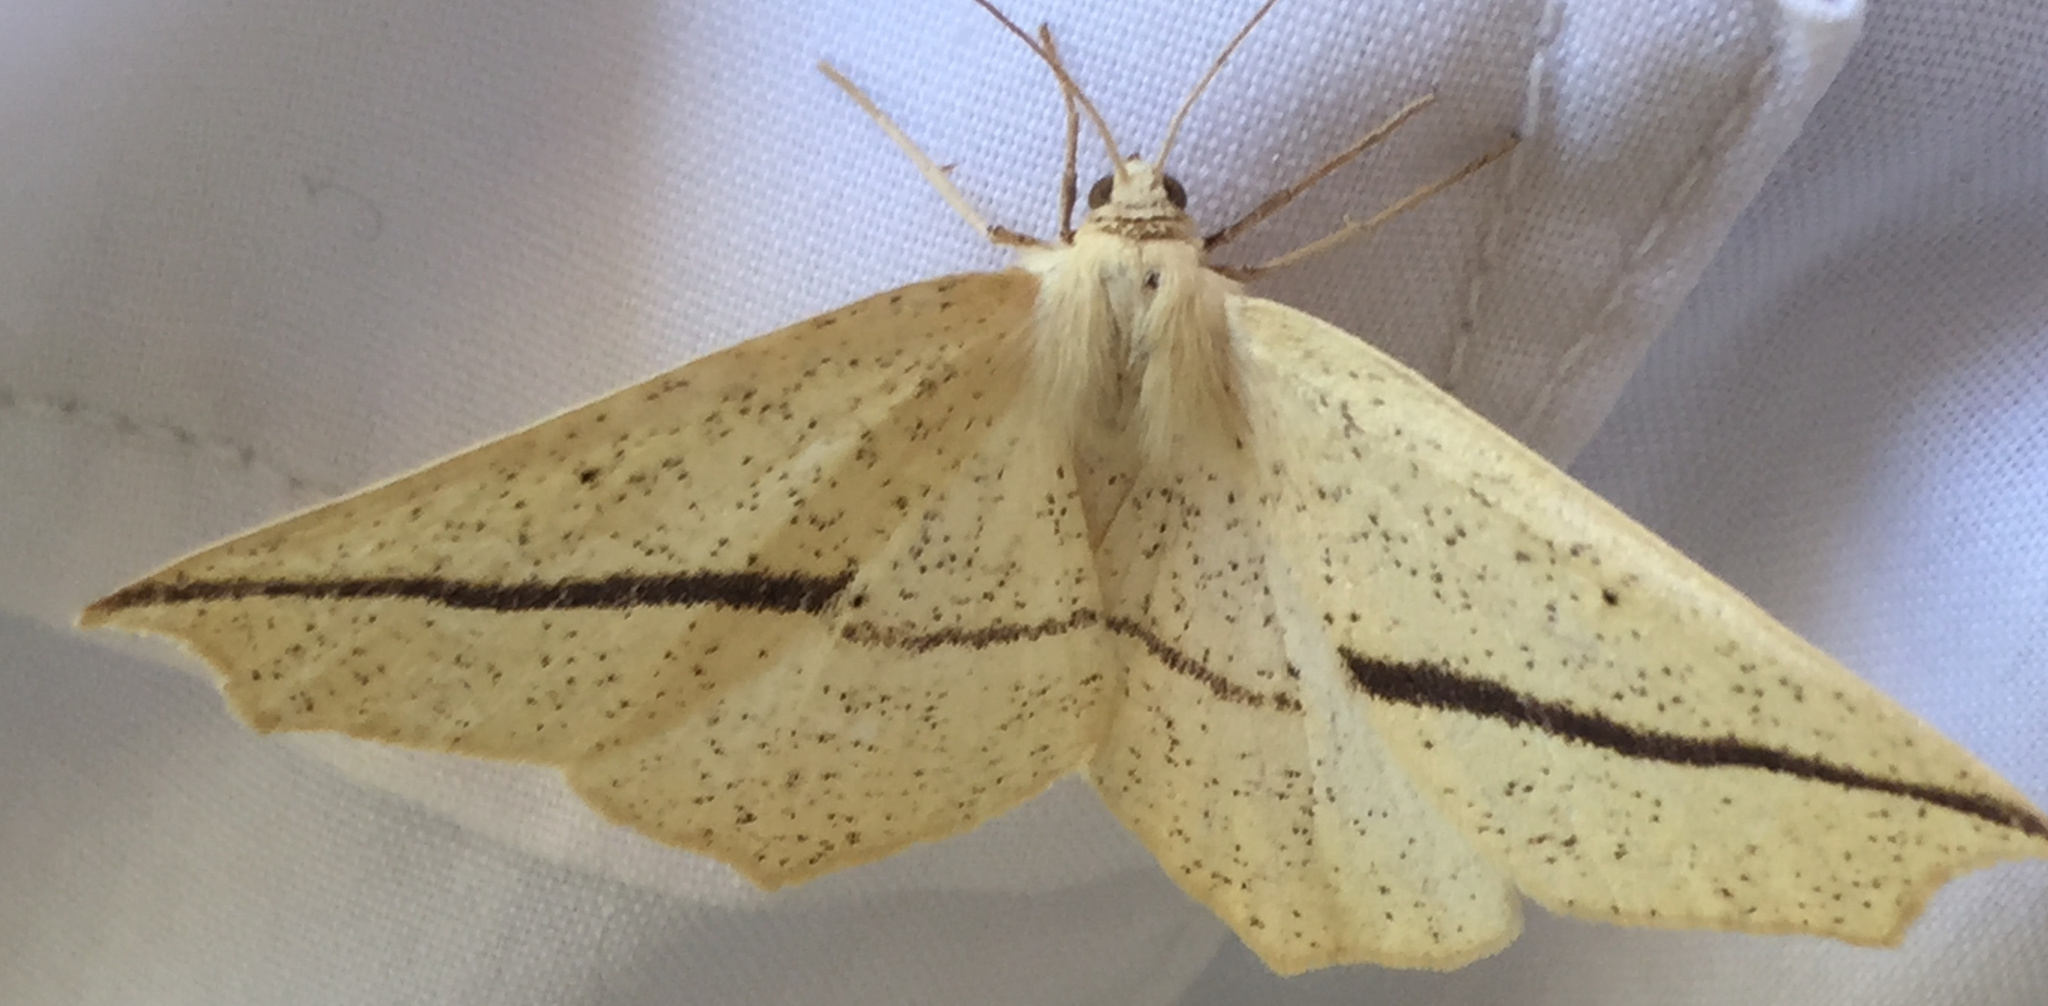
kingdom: Animalia
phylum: Arthropoda
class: Insecta
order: Lepidoptera
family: Geometridae
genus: Tetracis
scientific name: Tetracis crocallata
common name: Yellow slant-line
